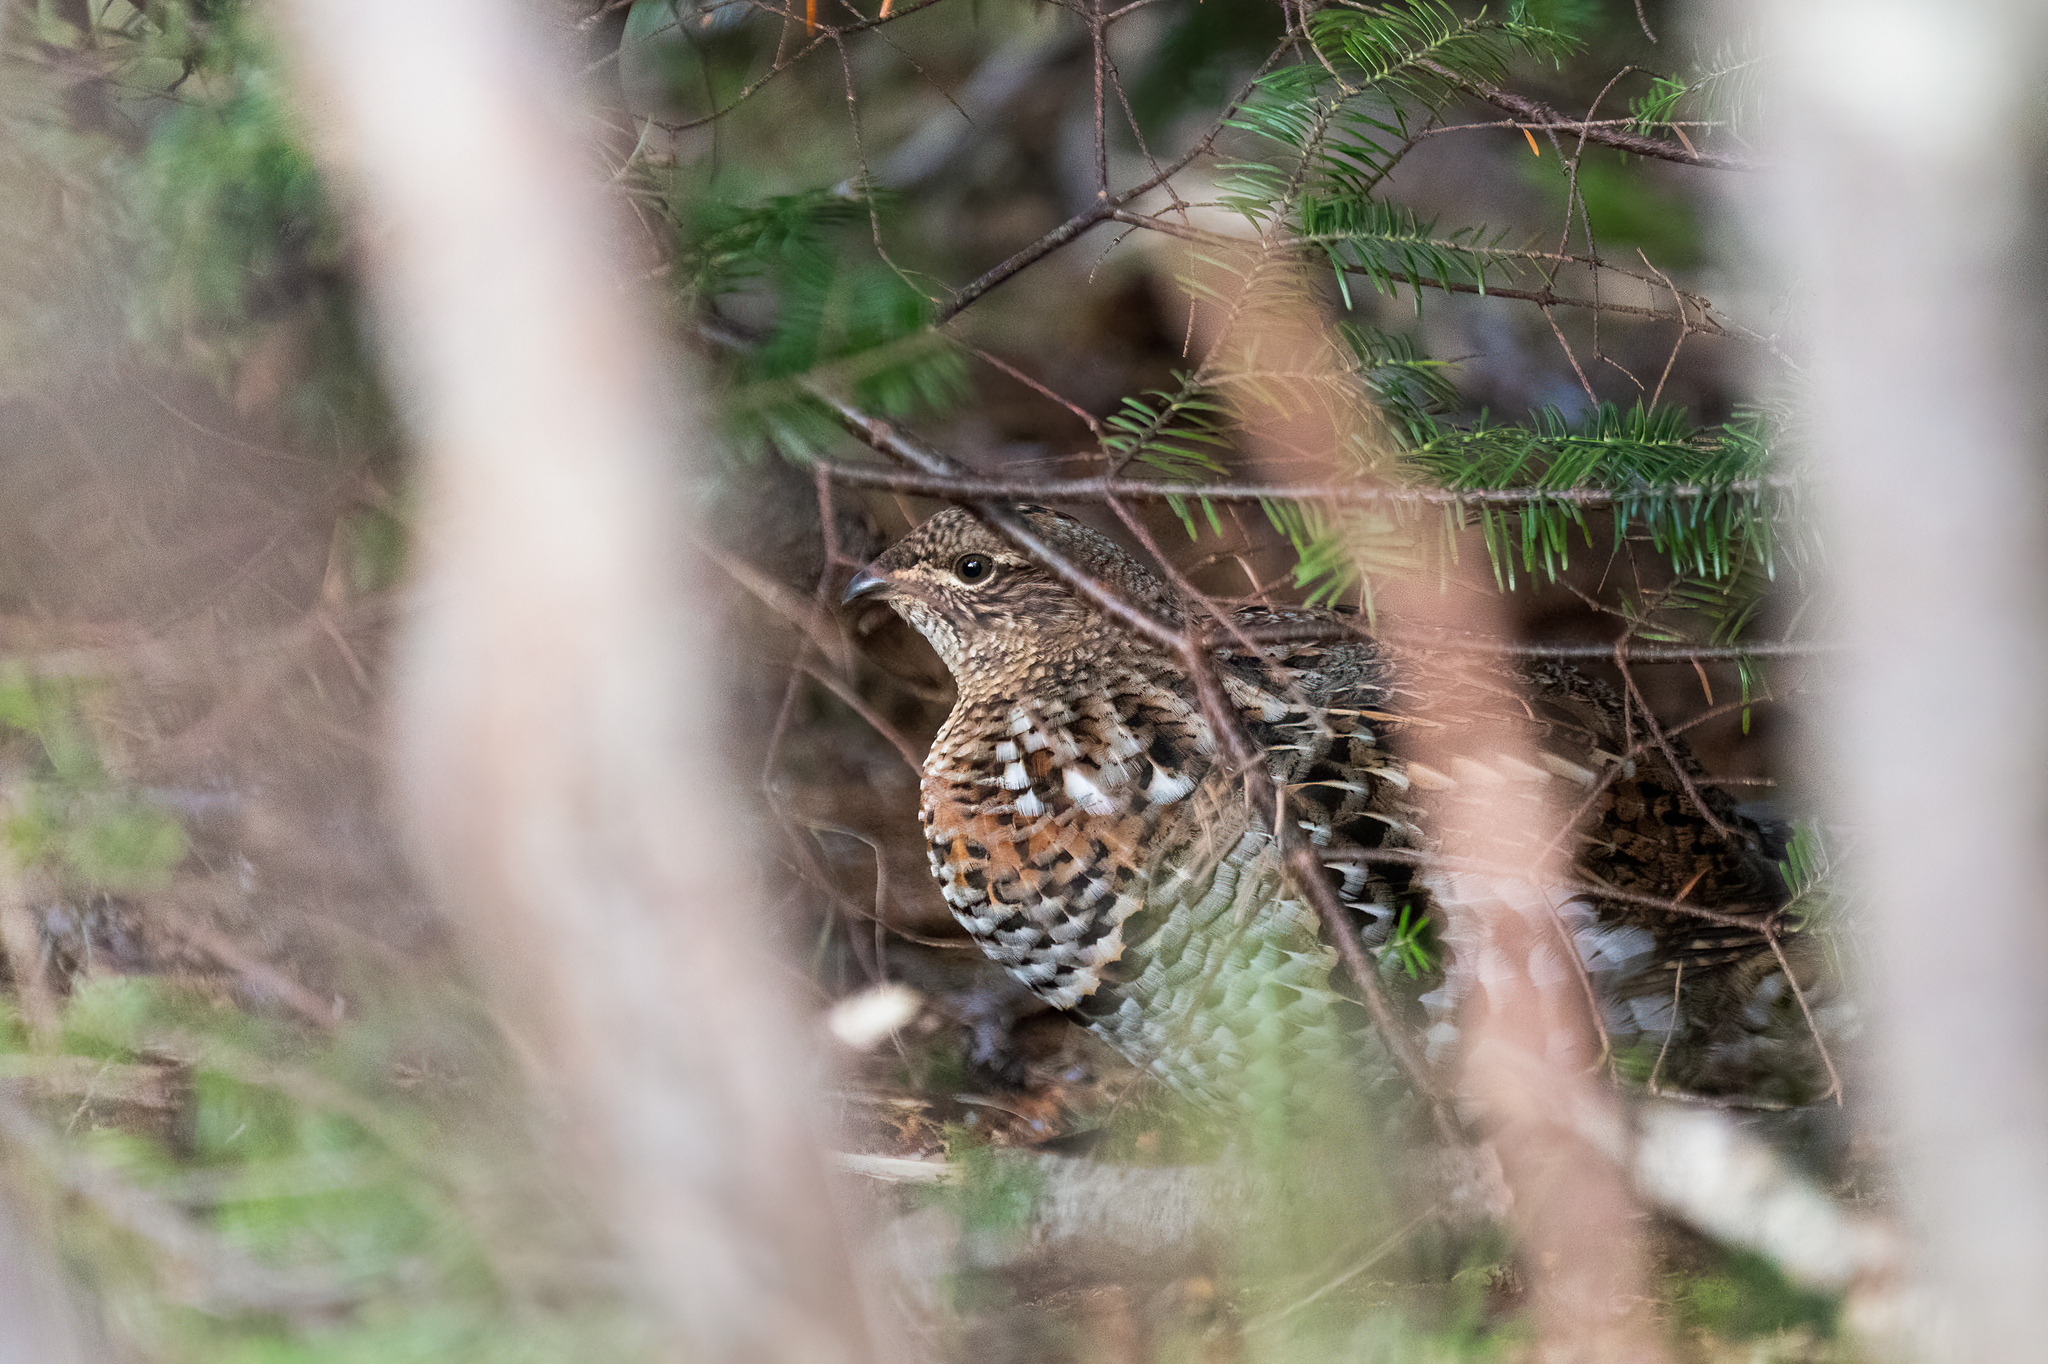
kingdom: Animalia
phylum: Chordata
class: Aves
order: Galliformes
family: Phasianidae
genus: Bonasa
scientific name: Bonasa umbellus
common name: Ruffed grouse
